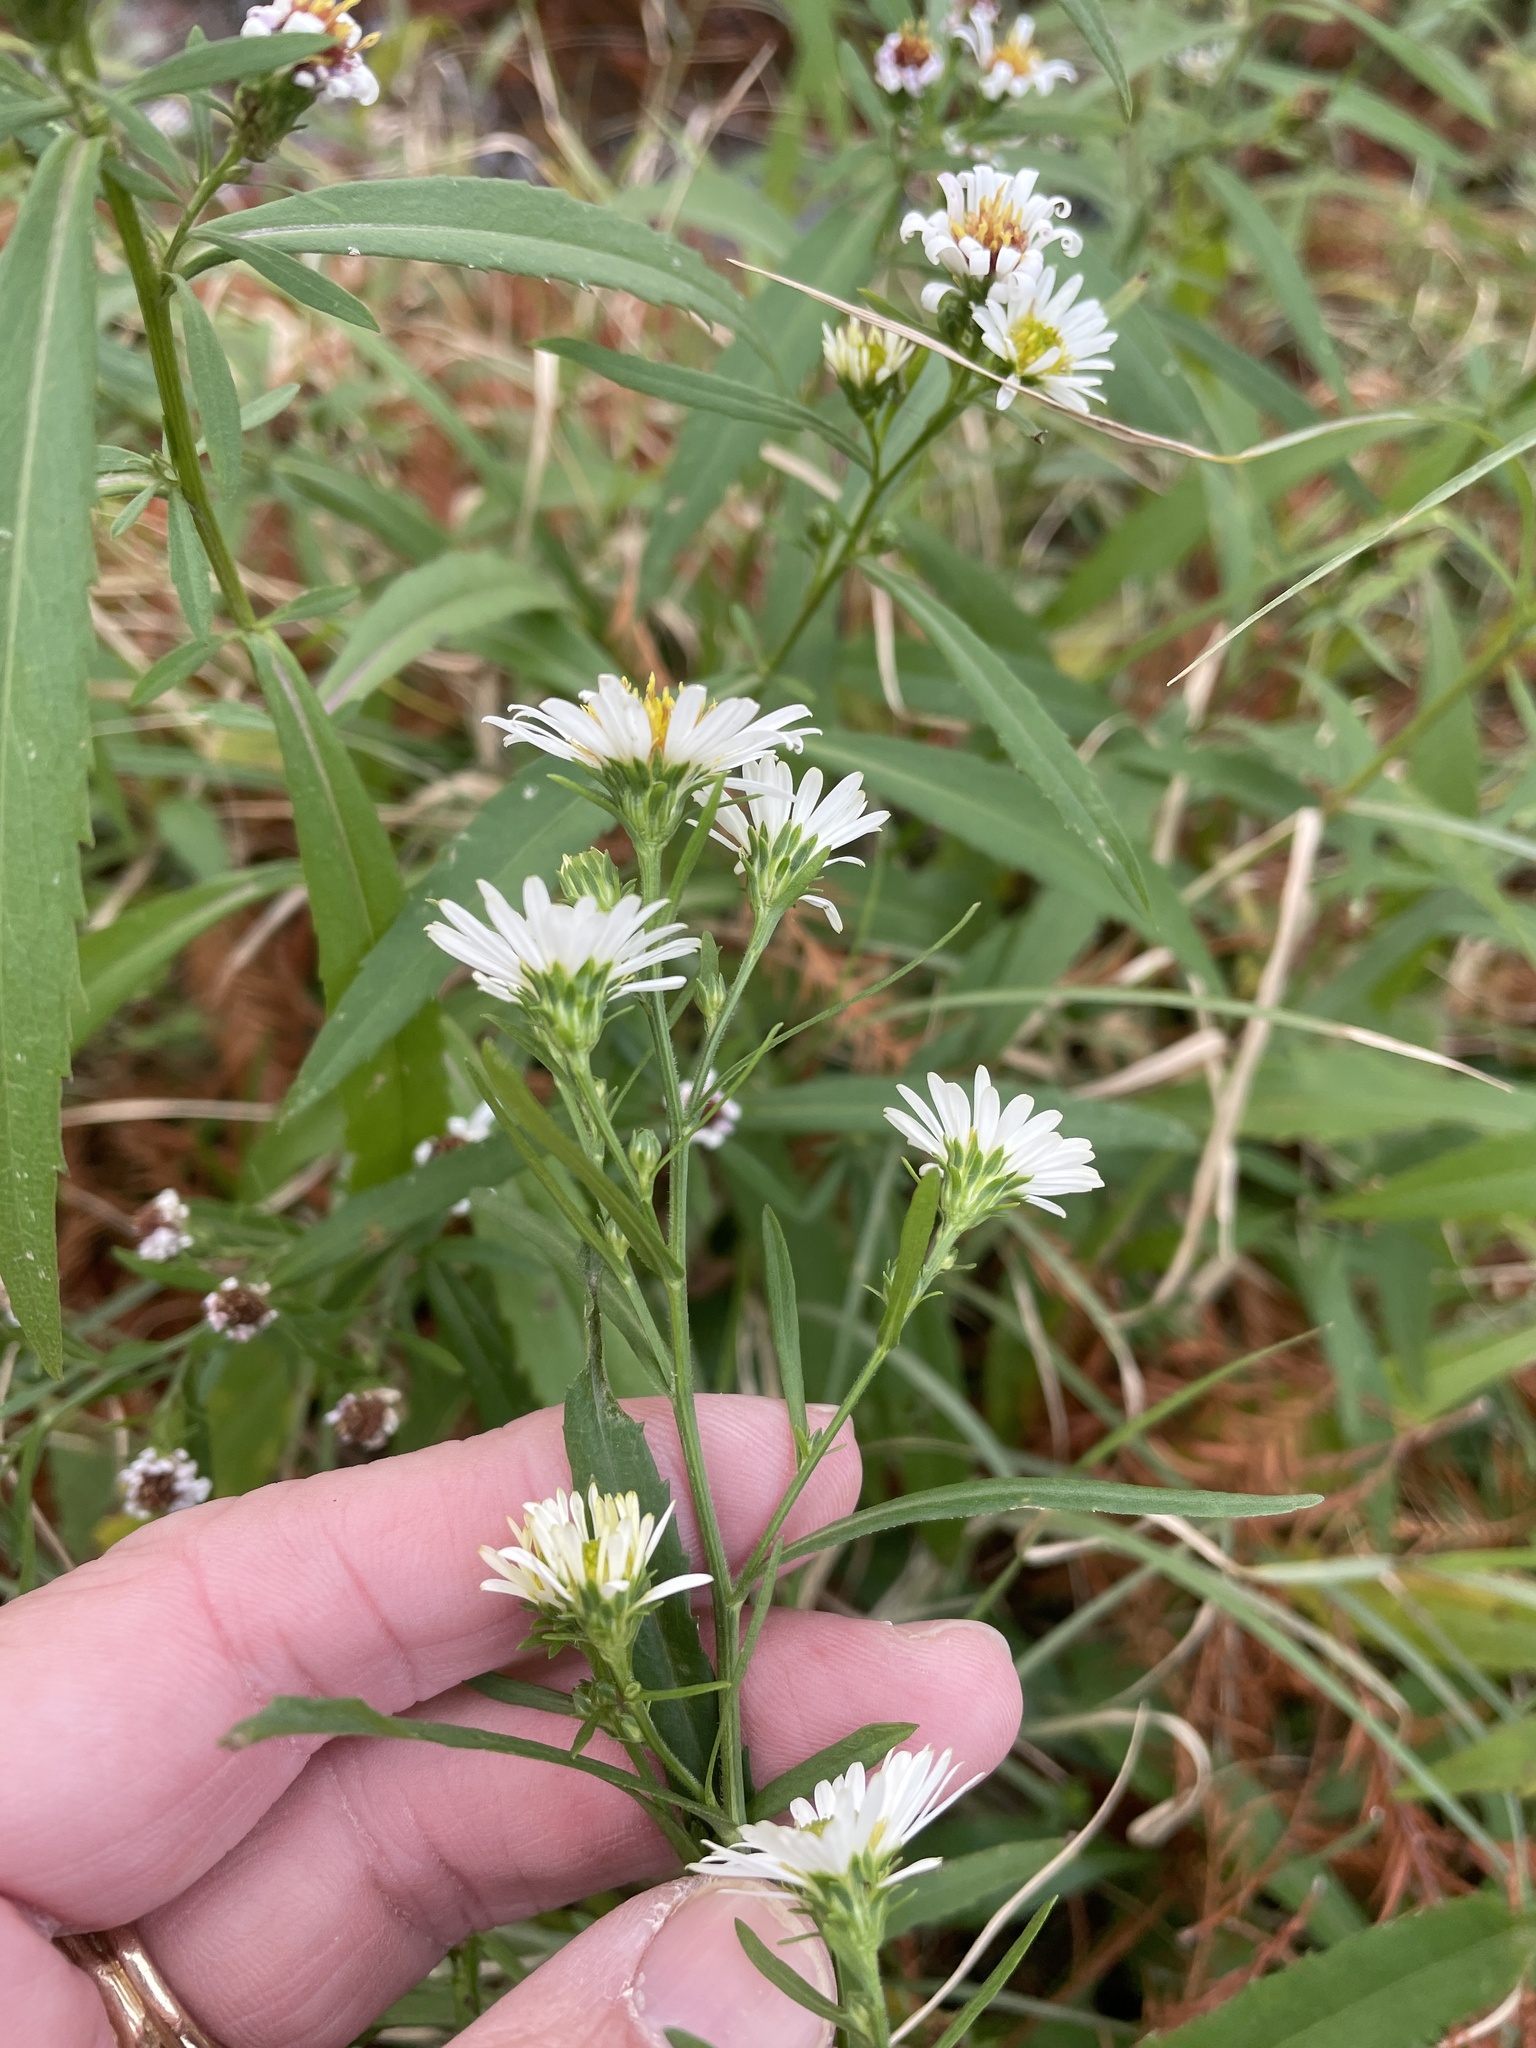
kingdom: Plantae
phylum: Tracheophyta
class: Magnoliopsida
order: Asterales
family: Asteraceae
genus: Symphyotrichum
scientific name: Symphyotrichum lanceolatum
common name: Panicled aster
